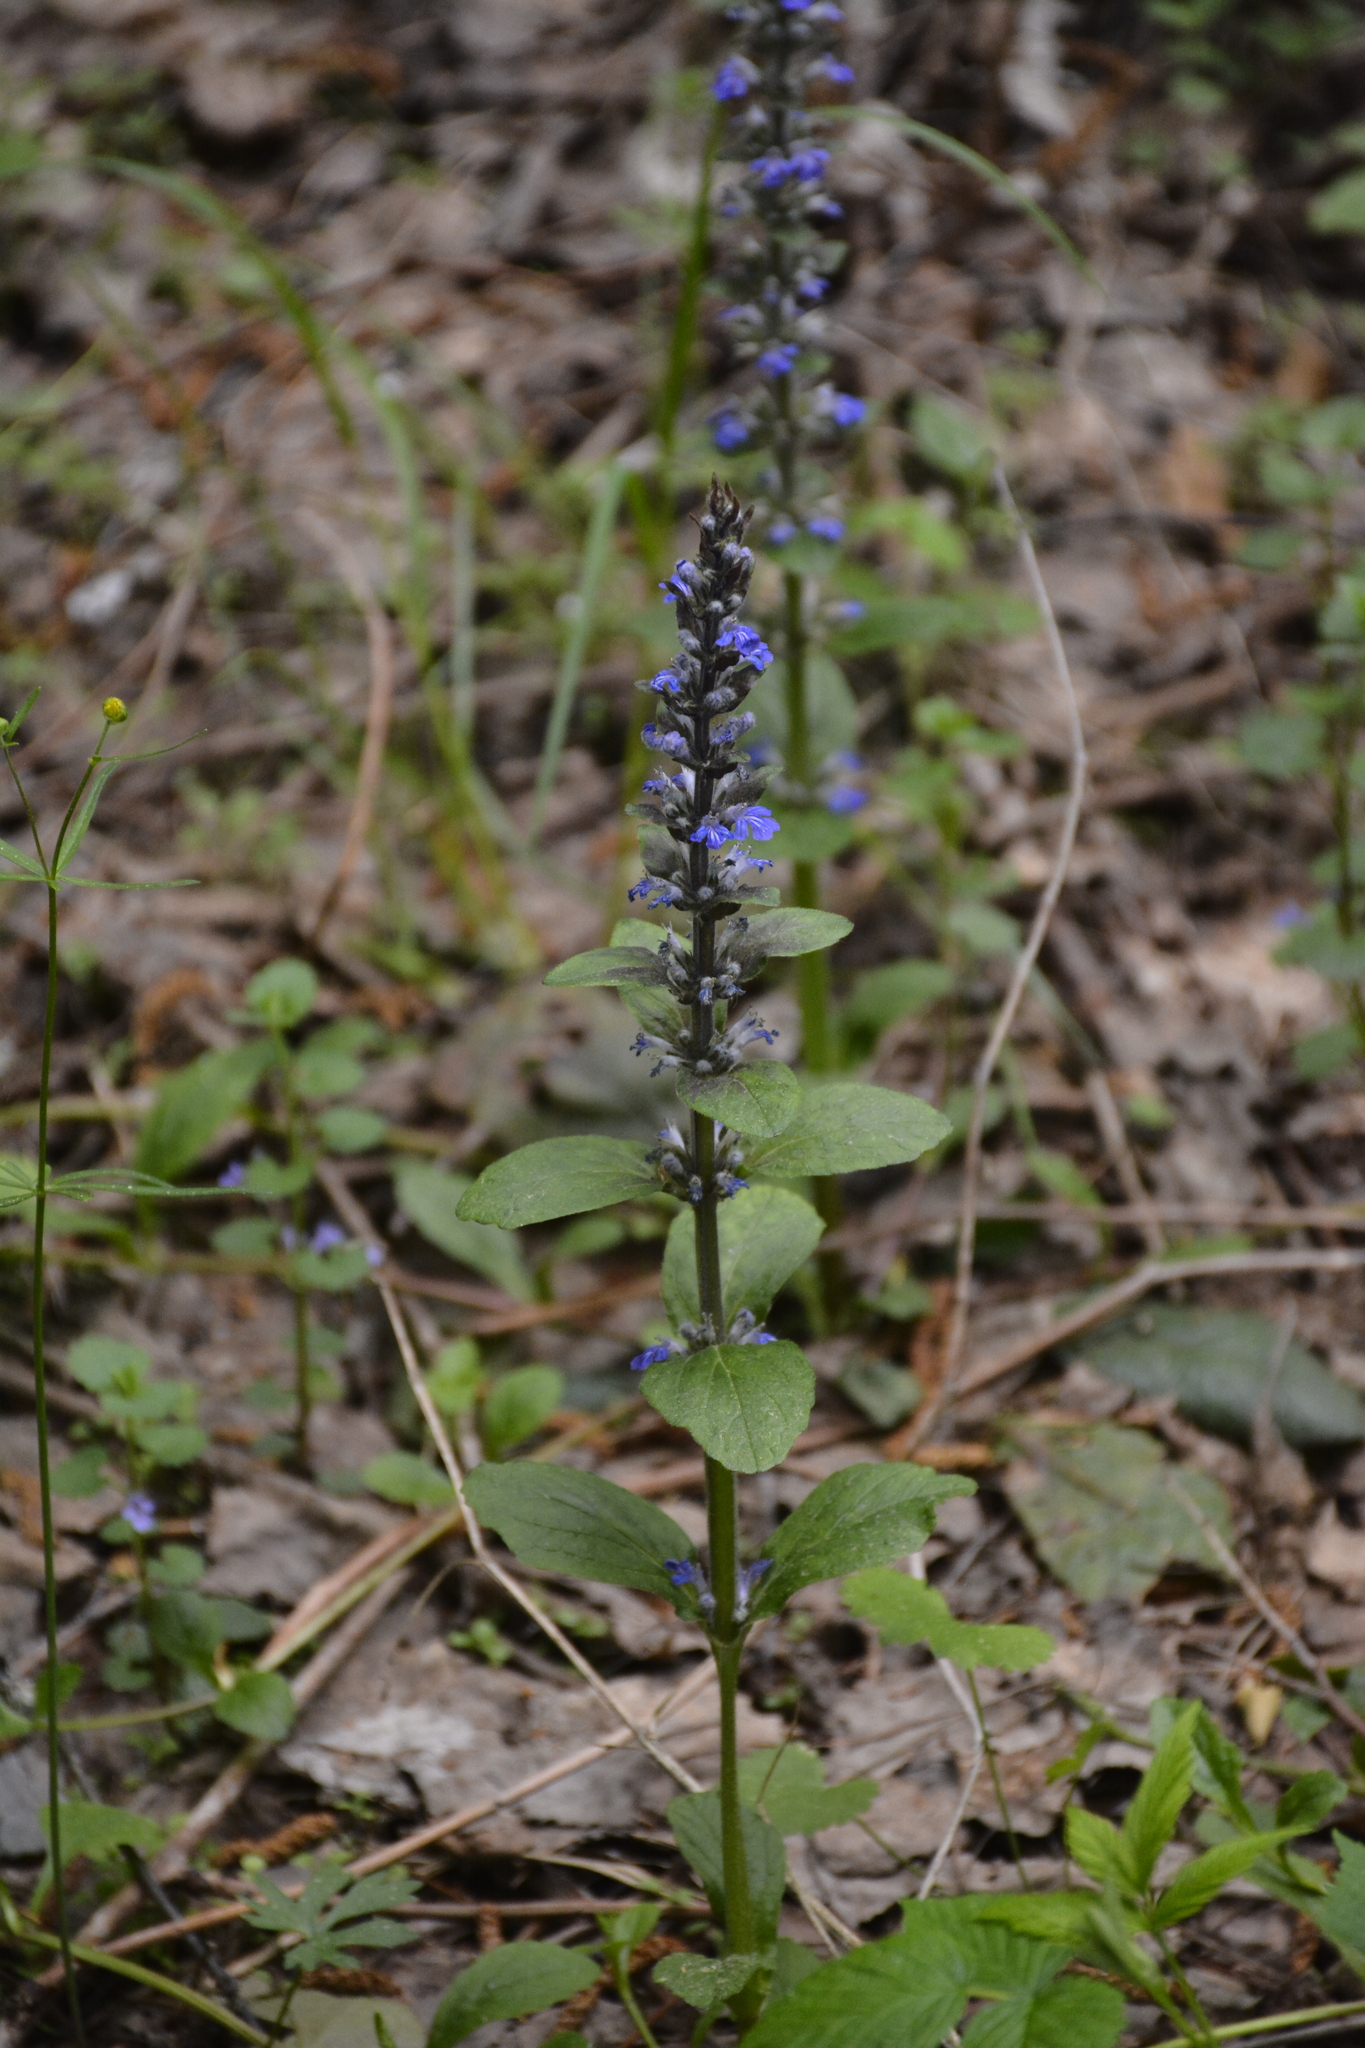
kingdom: Plantae
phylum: Tracheophyta
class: Magnoliopsida
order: Lamiales
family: Lamiaceae
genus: Ajuga
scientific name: Ajuga reptans
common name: Bugle
